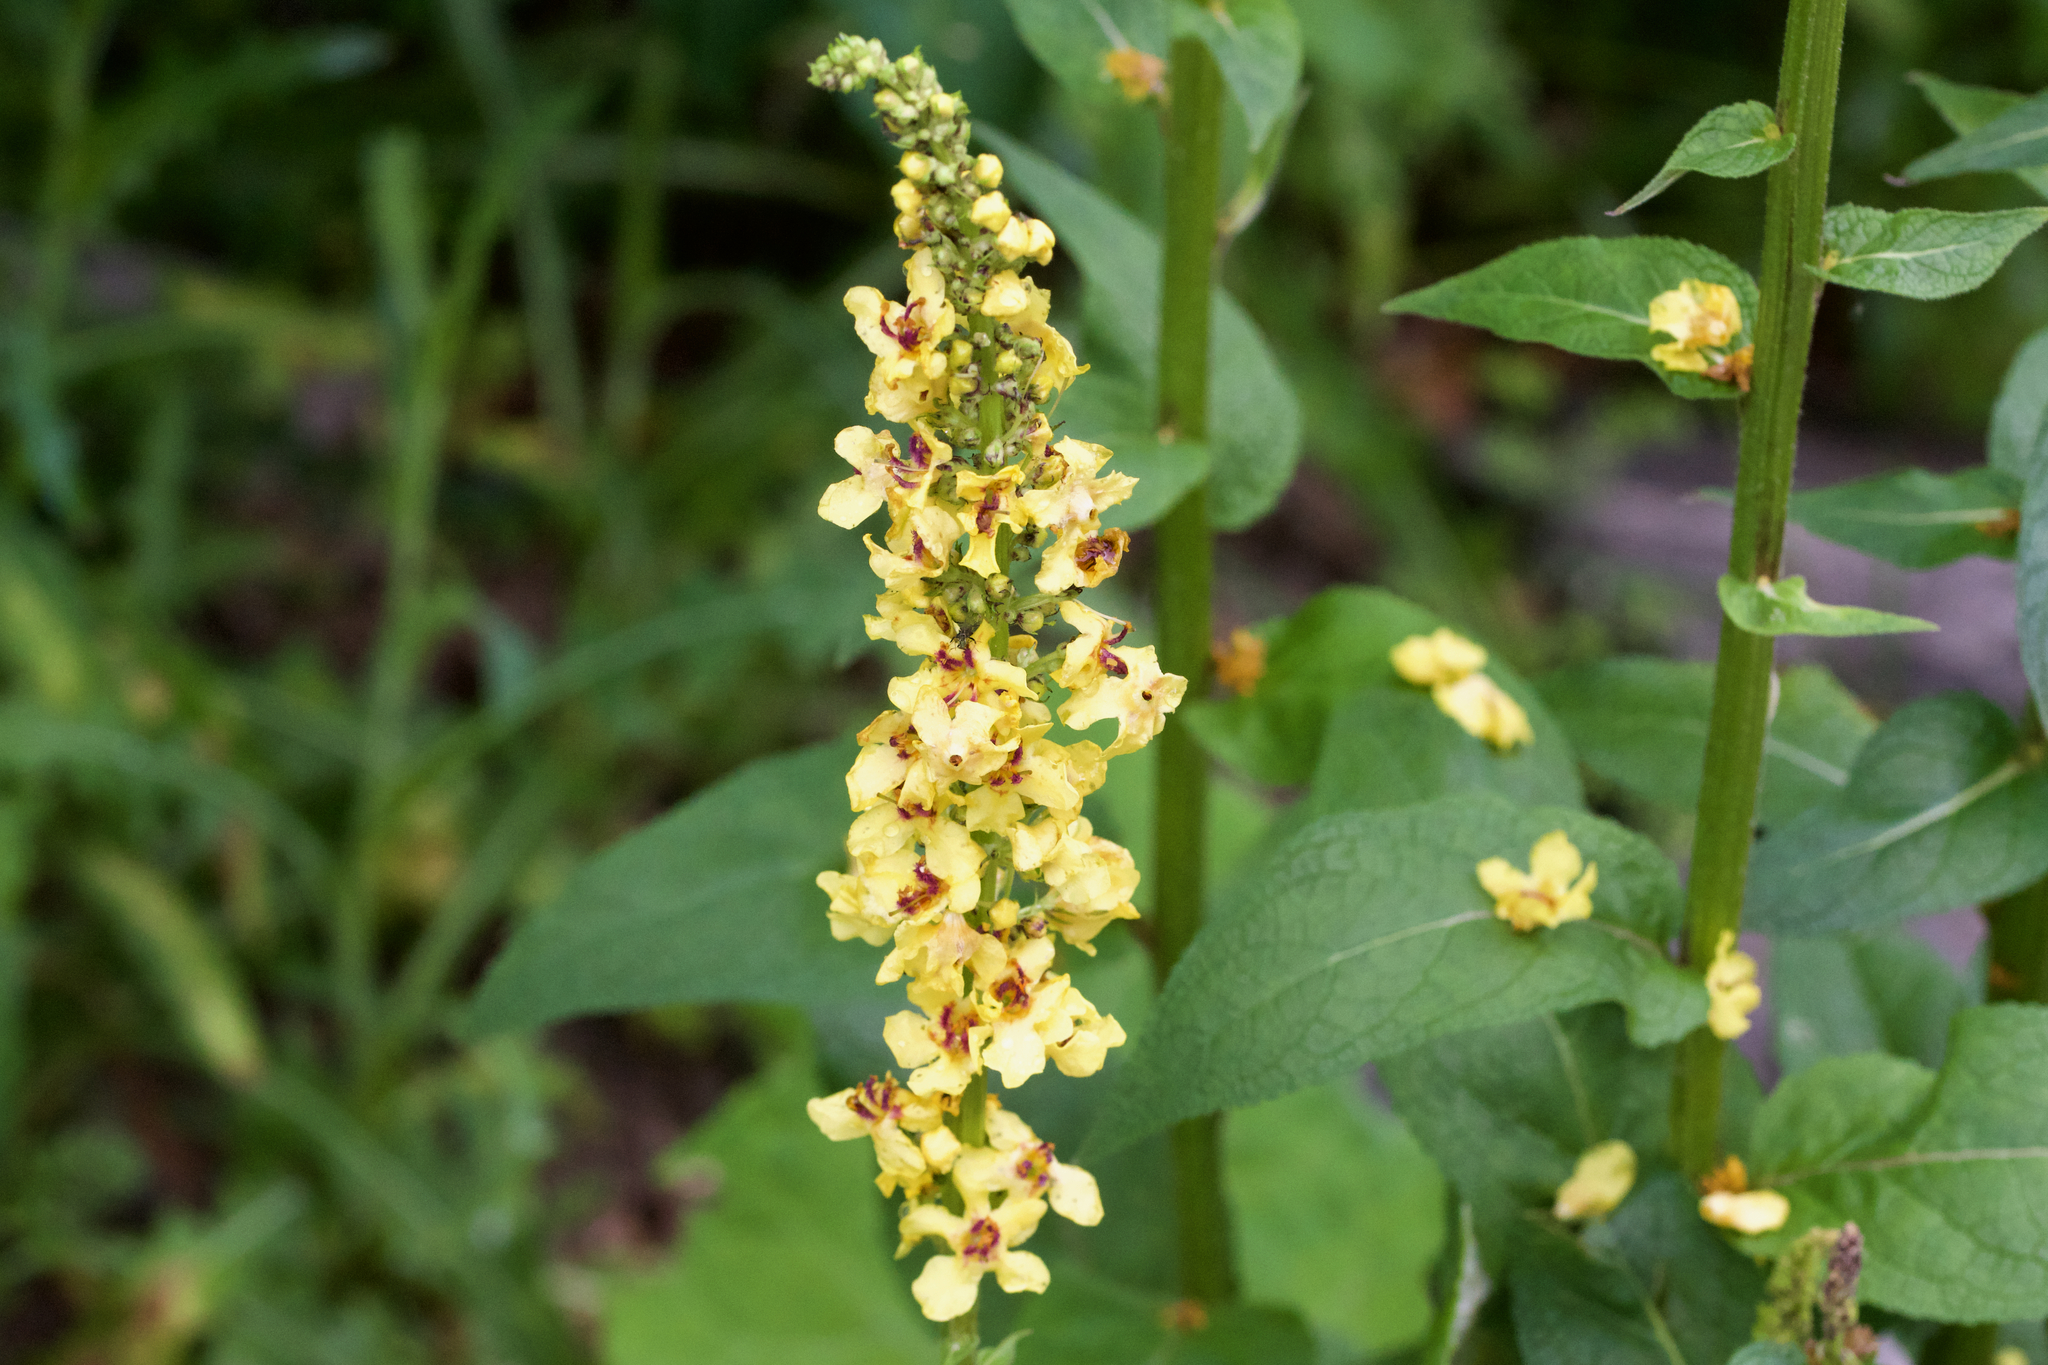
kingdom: Plantae
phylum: Tracheophyta
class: Magnoliopsida
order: Lamiales
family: Scrophulariaceae
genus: Verbascum
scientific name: Verbascum nigrum
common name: Dark mullein
